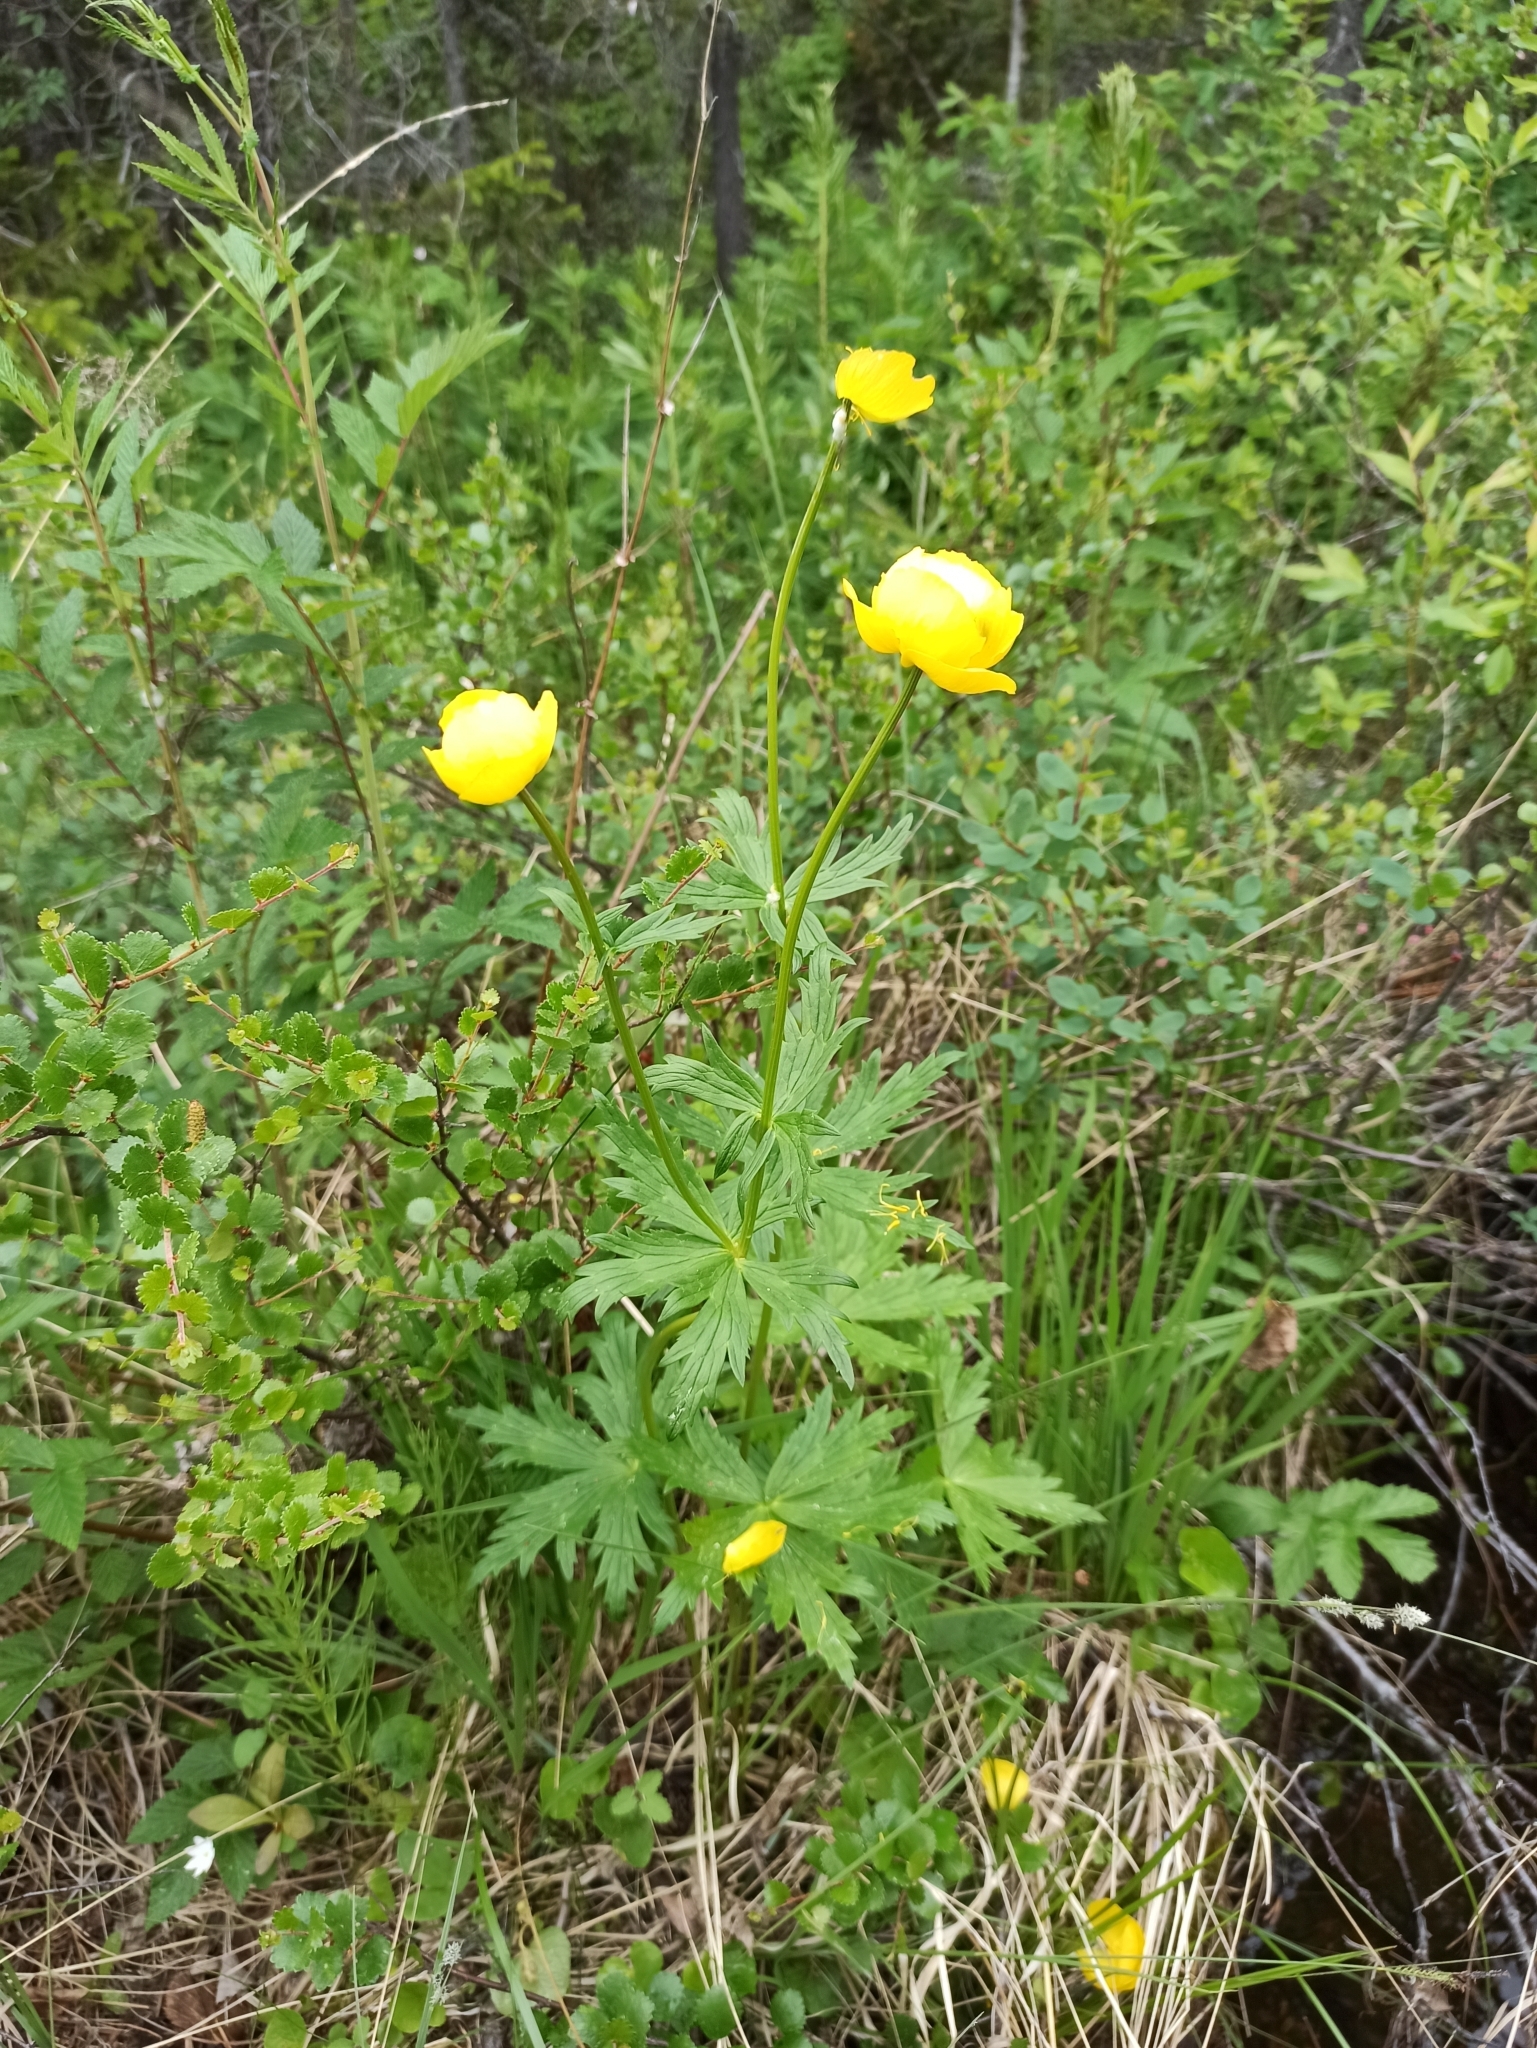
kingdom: Plantae
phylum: Tracheophyta
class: Magnoliopsida
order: Ranunculales
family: Ranunculaceae
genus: Trollius
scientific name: Trollius europaeus
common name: European globeflower
